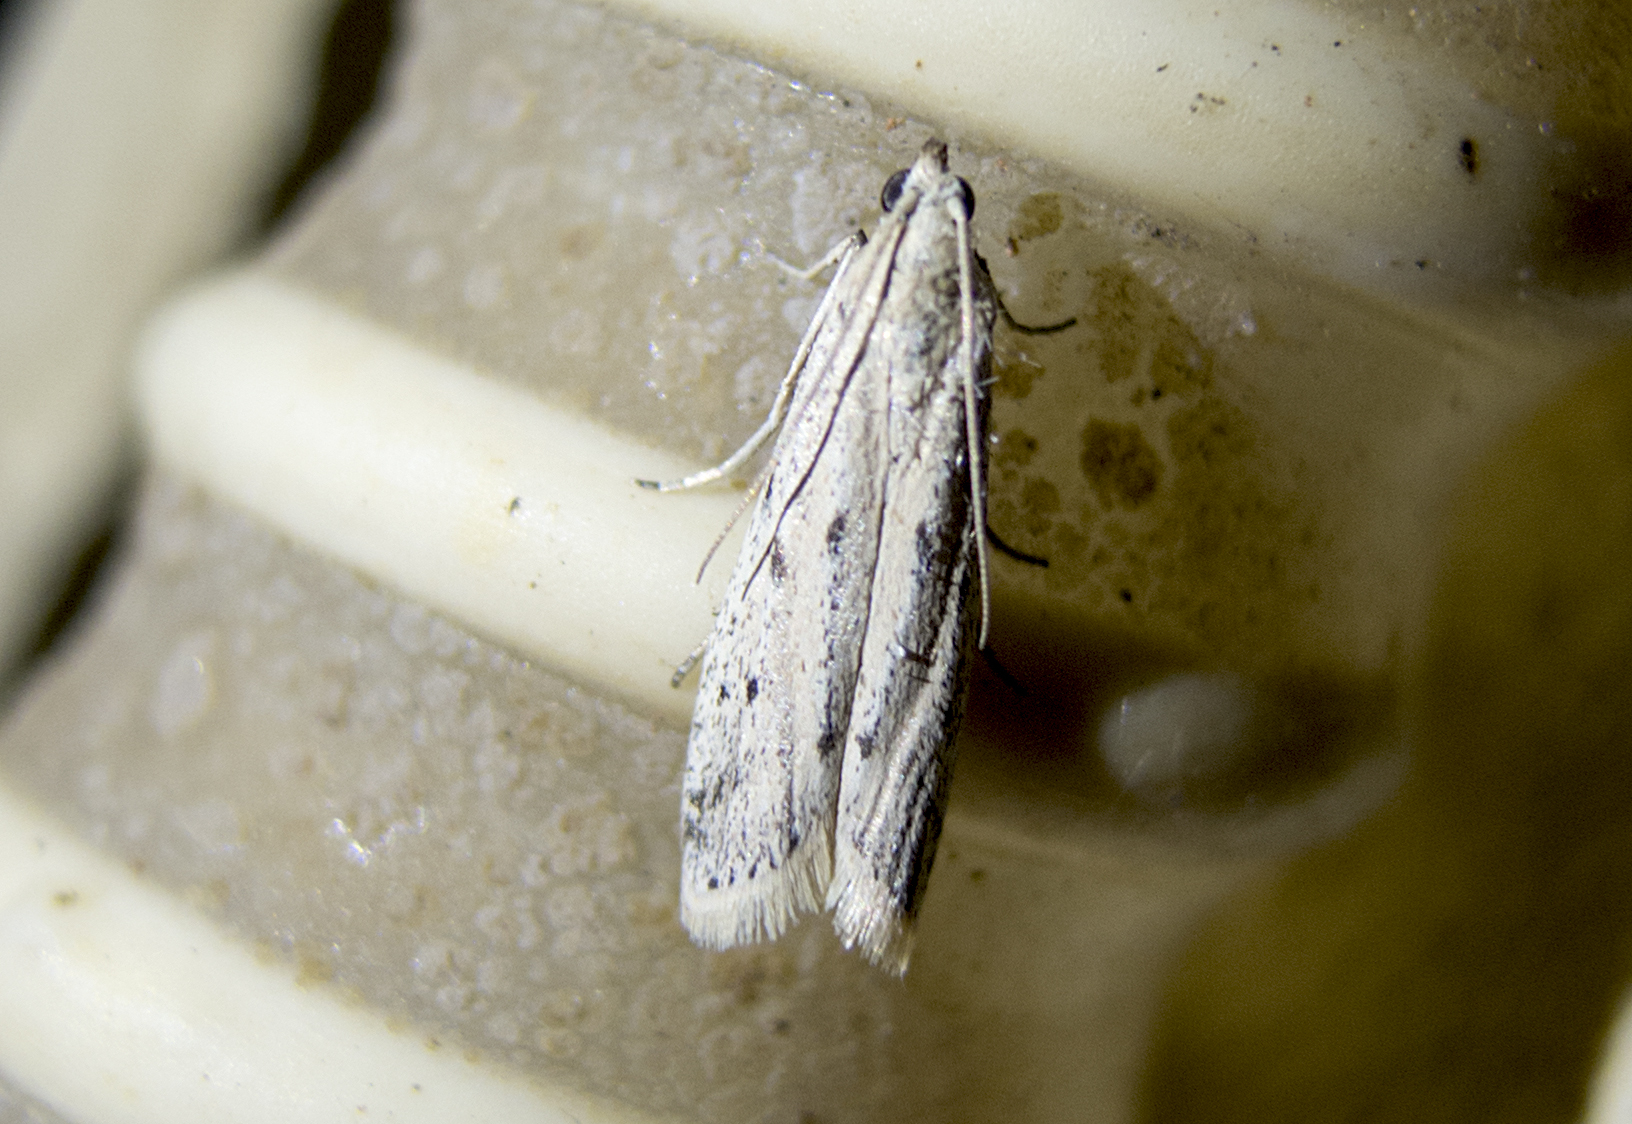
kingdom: Animalia
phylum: Arthropoda
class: Insecta
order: Lepidoptera
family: Pyralidae
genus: Phycitodes
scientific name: Phycitodes lacteella
